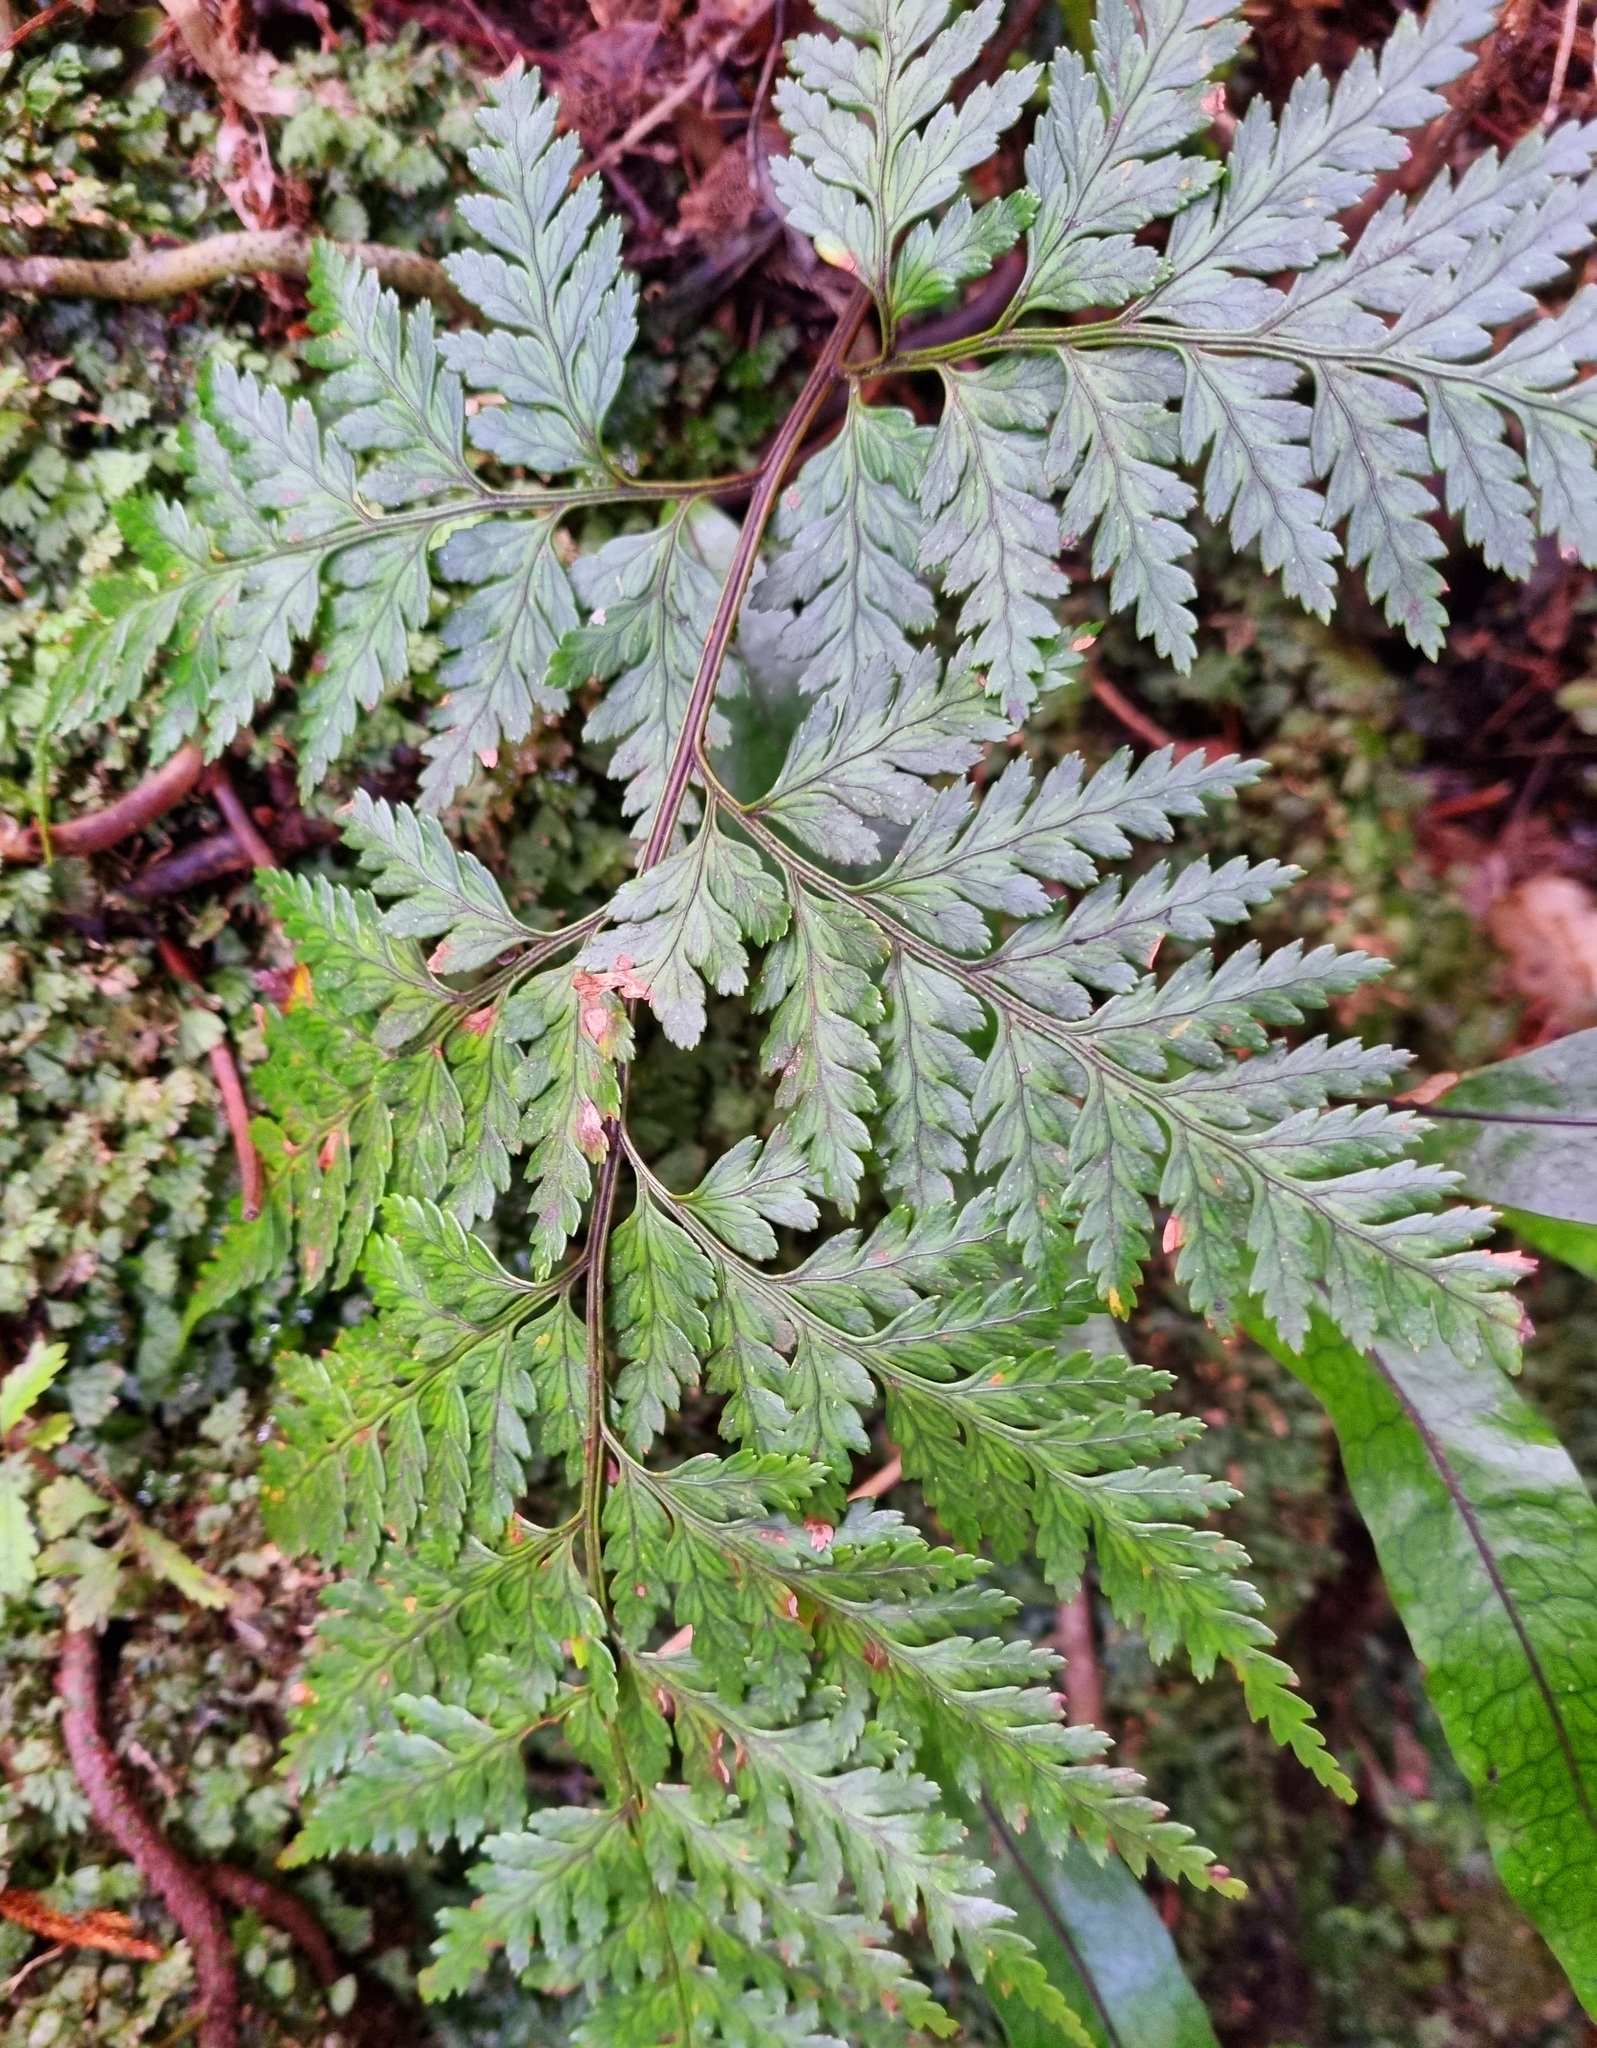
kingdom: Plantae
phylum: Tracheophyta
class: Polypodiopsida
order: Polypodiales
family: Dryopteridaceae
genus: Rumohra
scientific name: Rumohra adiantiformis
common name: Leather fern
